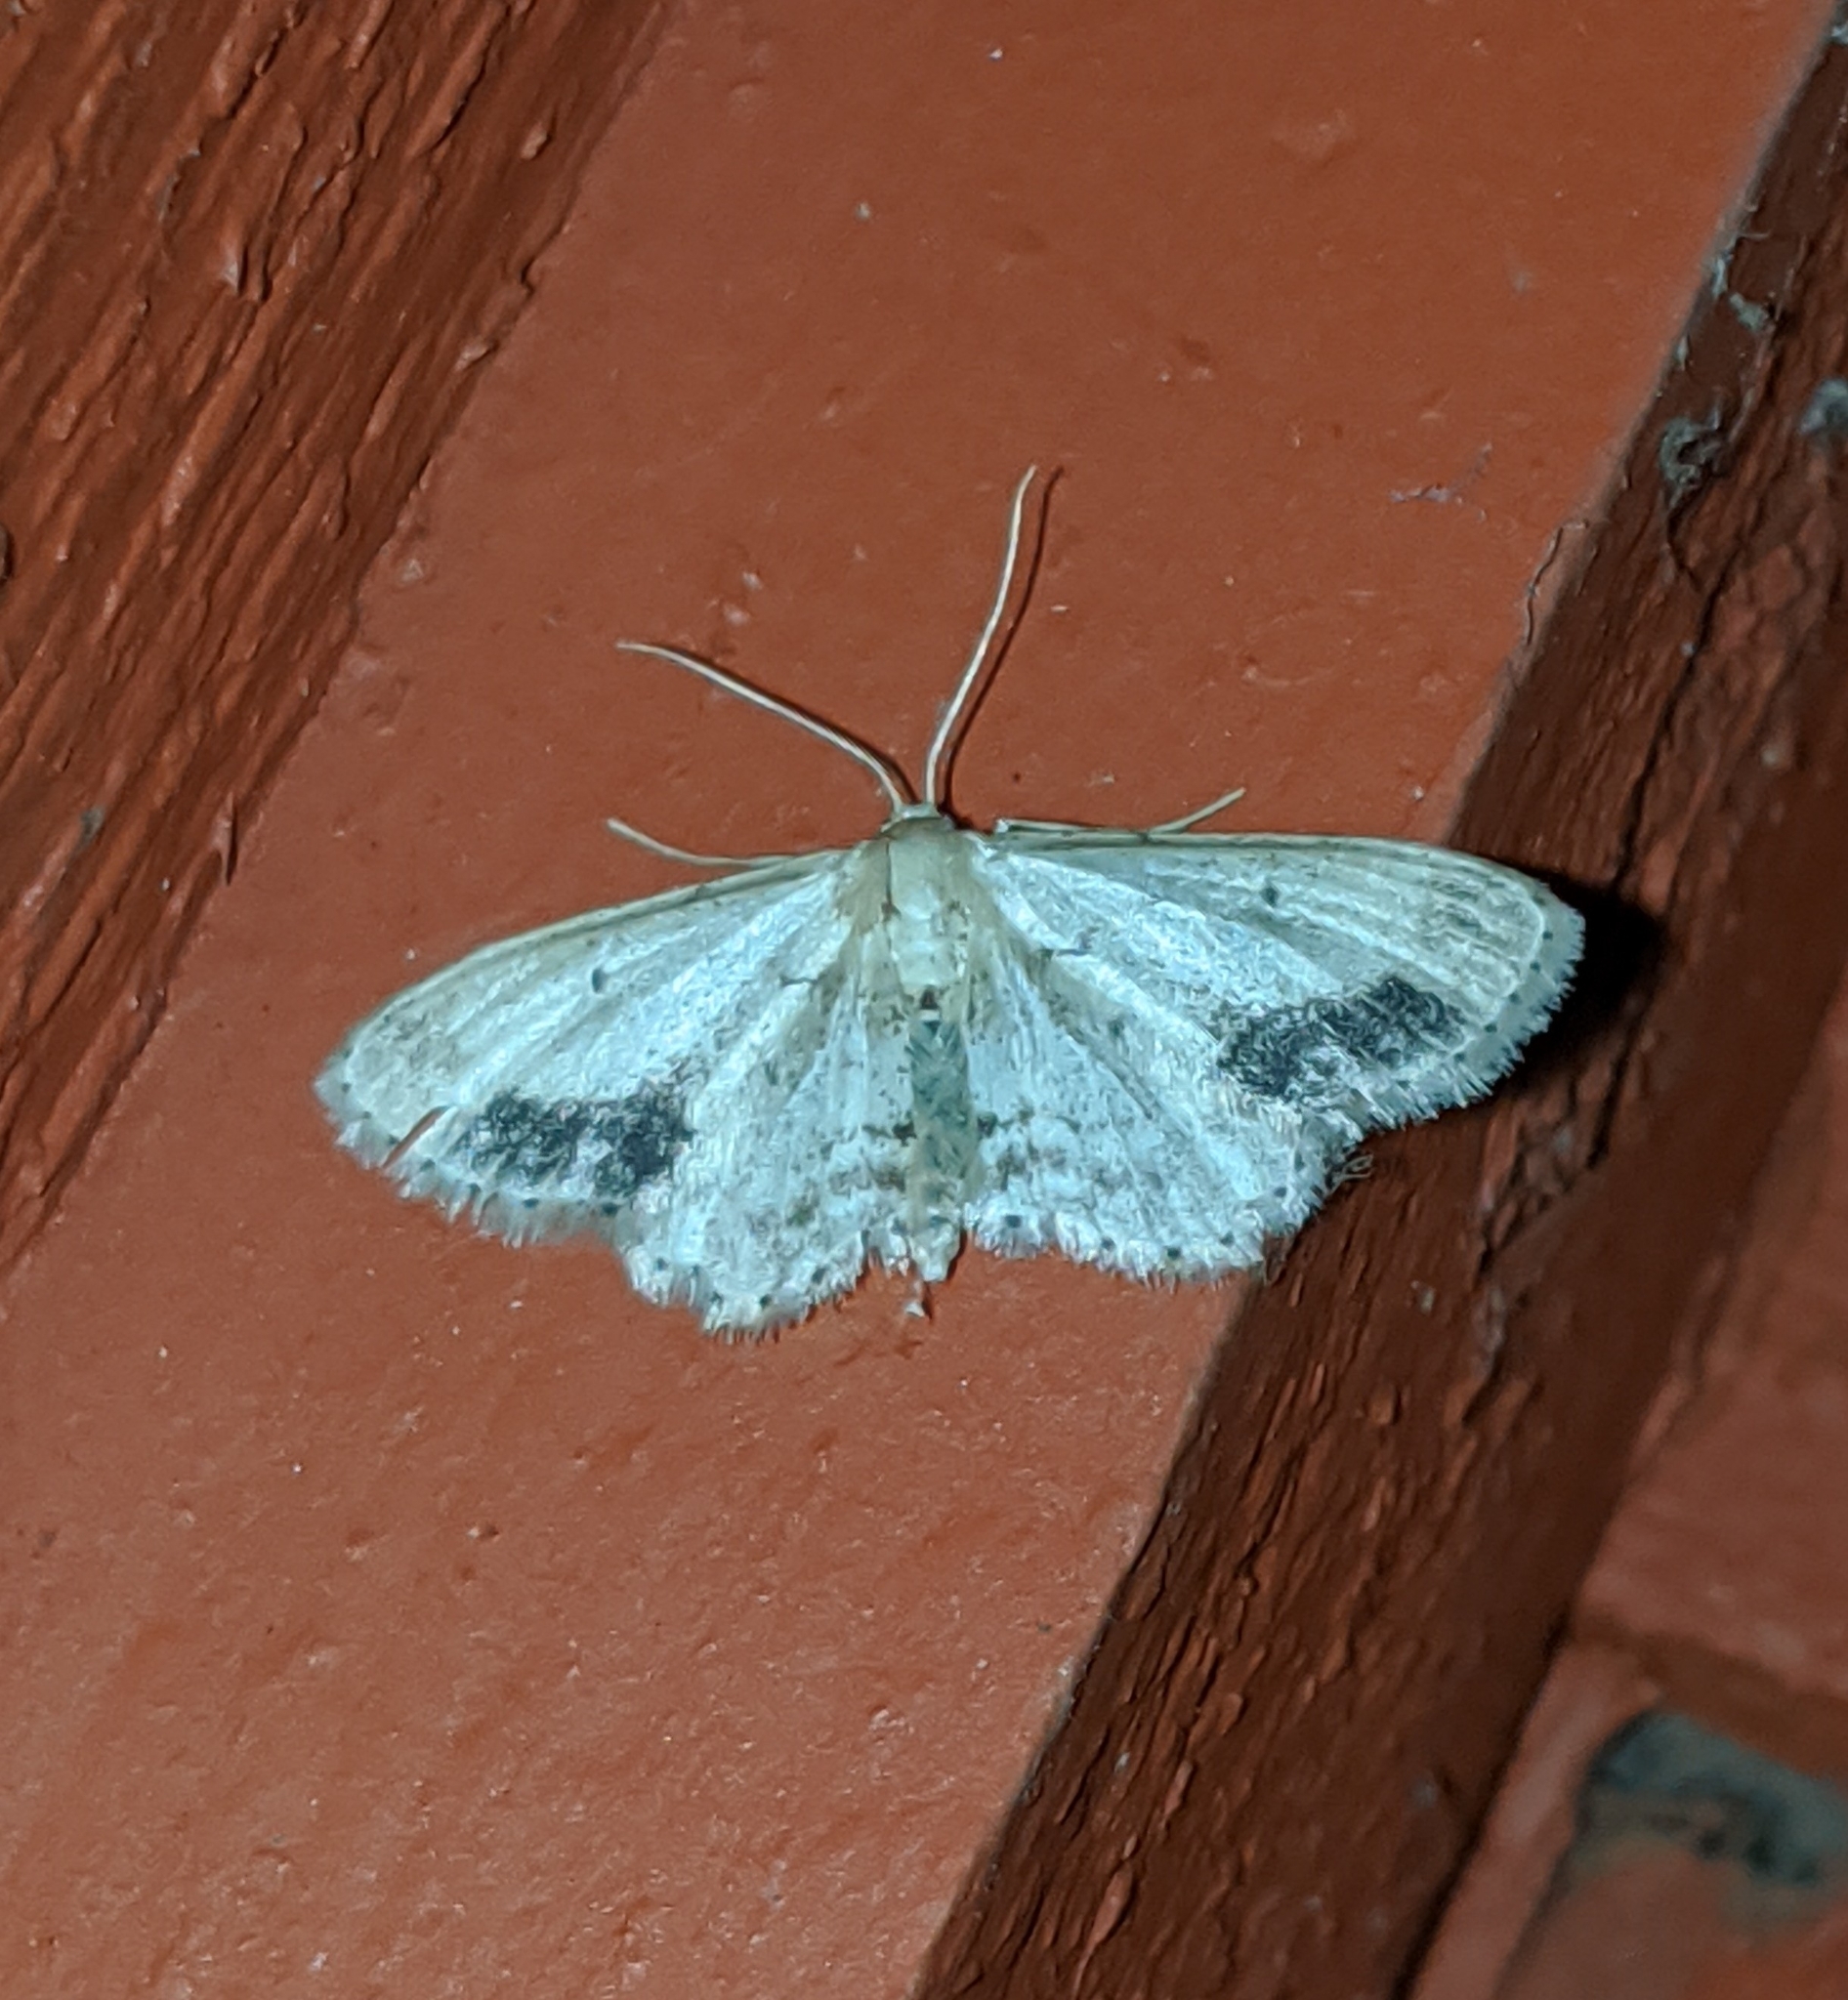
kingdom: Animalia
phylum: Arthropoda
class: Insecta
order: Lepidoptera
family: Geometridae
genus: Idaea
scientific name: Idaea dimidiata
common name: Single-dotted wave
